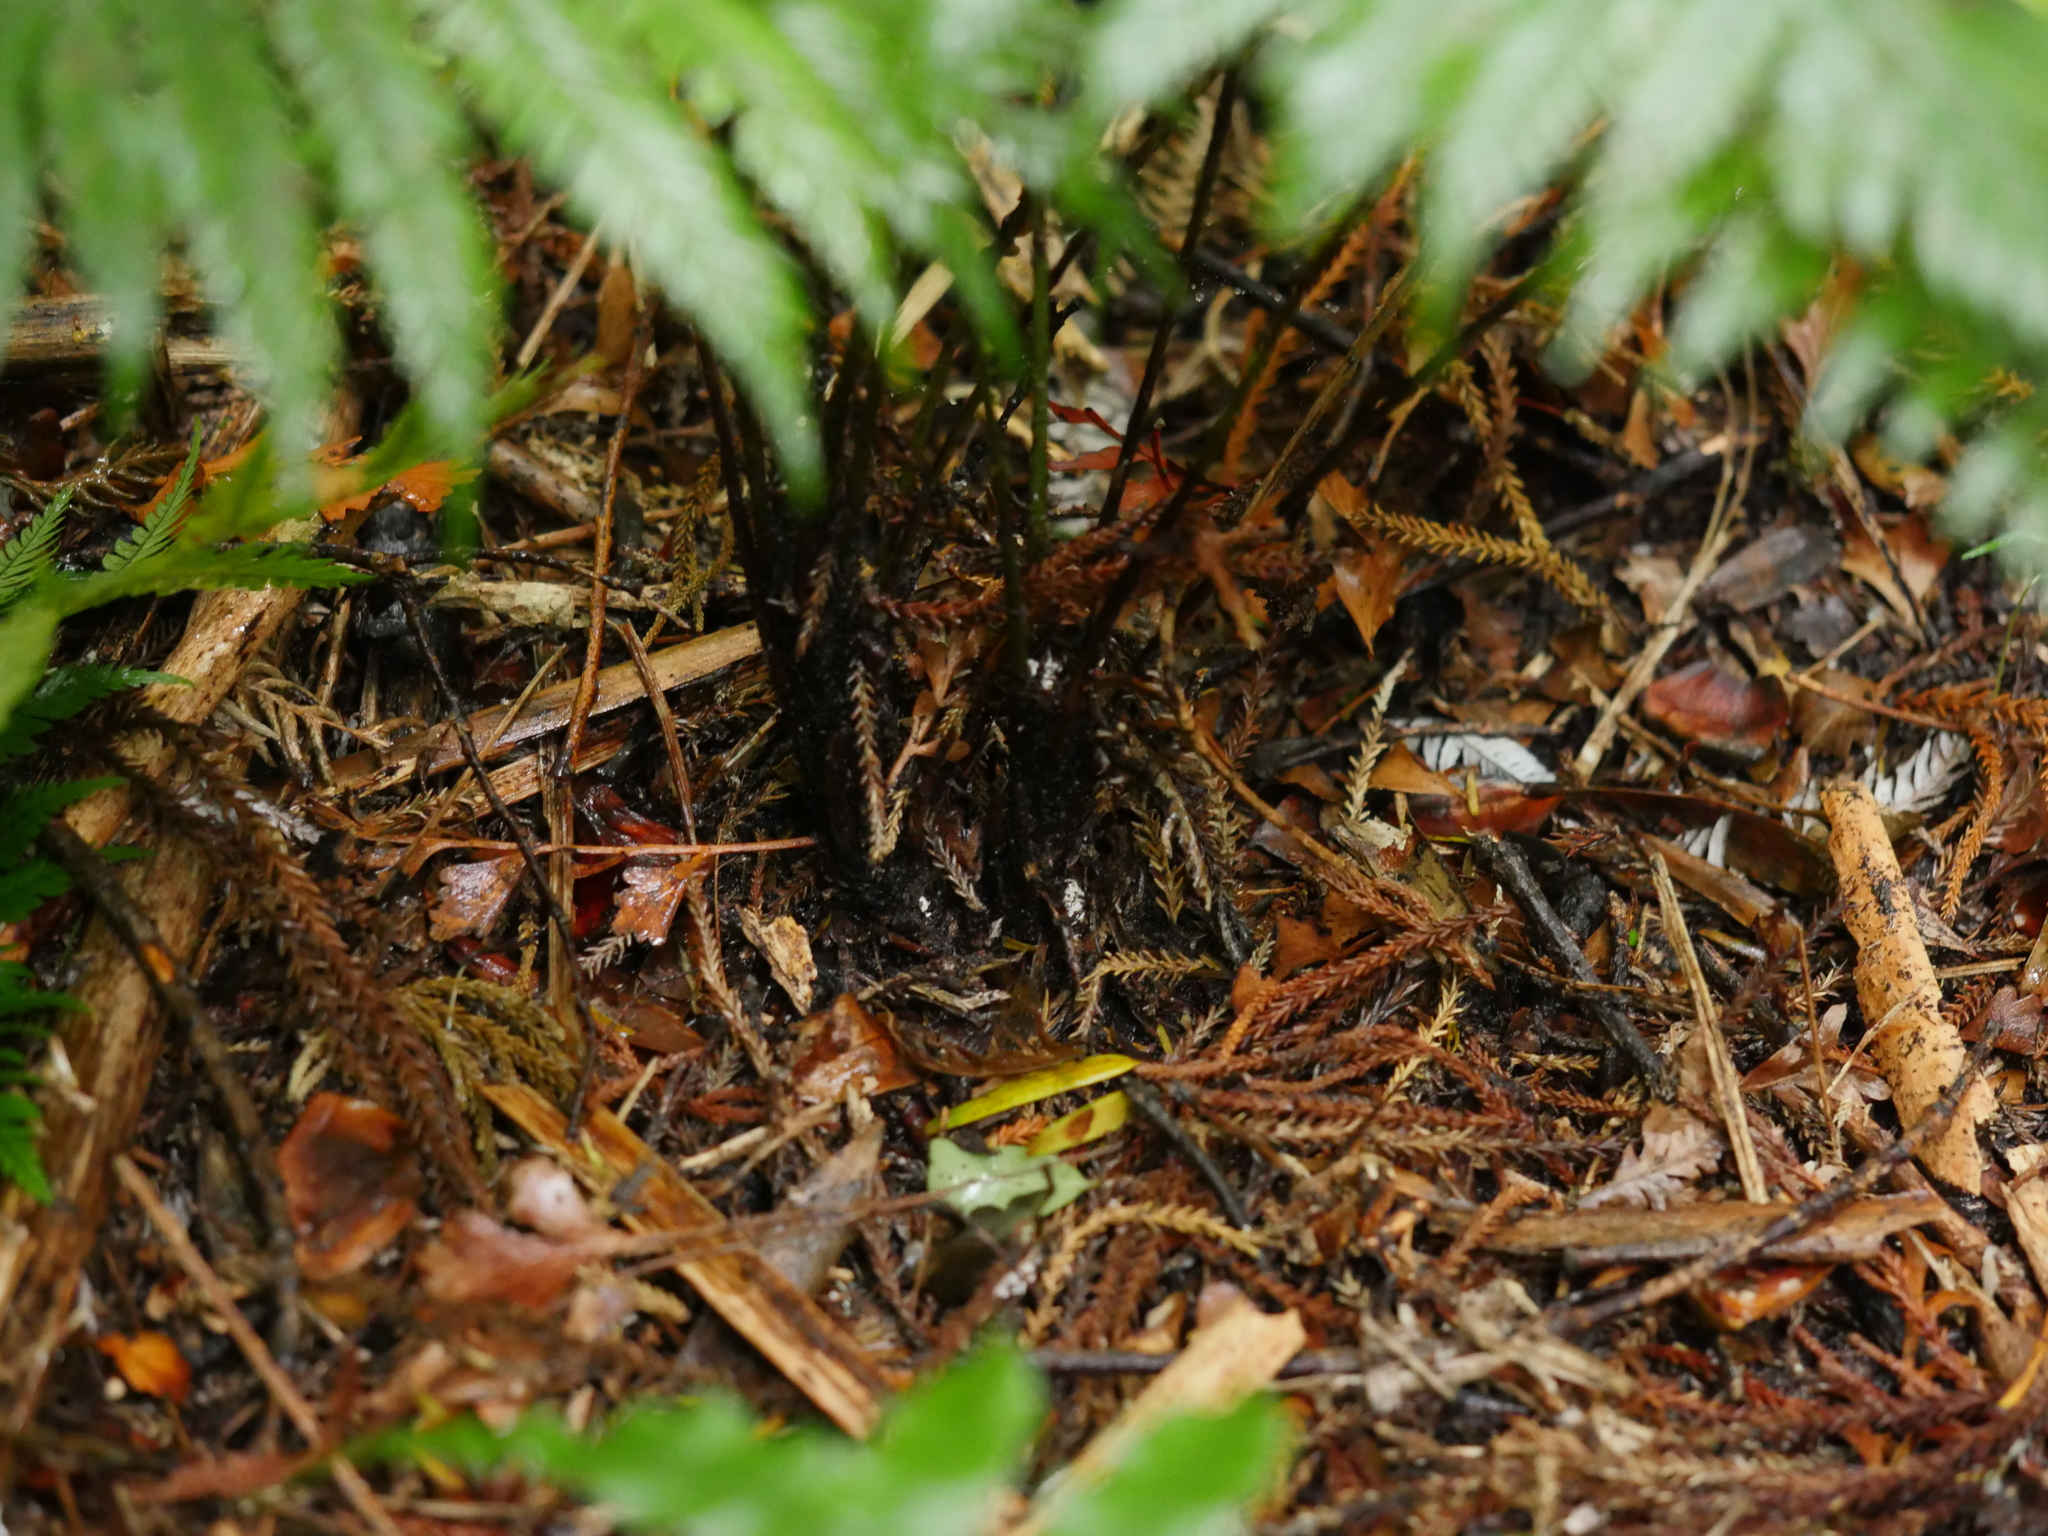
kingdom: Plantae
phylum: Tracheophyta
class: Polypodiopsida
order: Polypodiales
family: Blechnaceae
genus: Diploblechnum
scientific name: Diploblechnum fraseri
